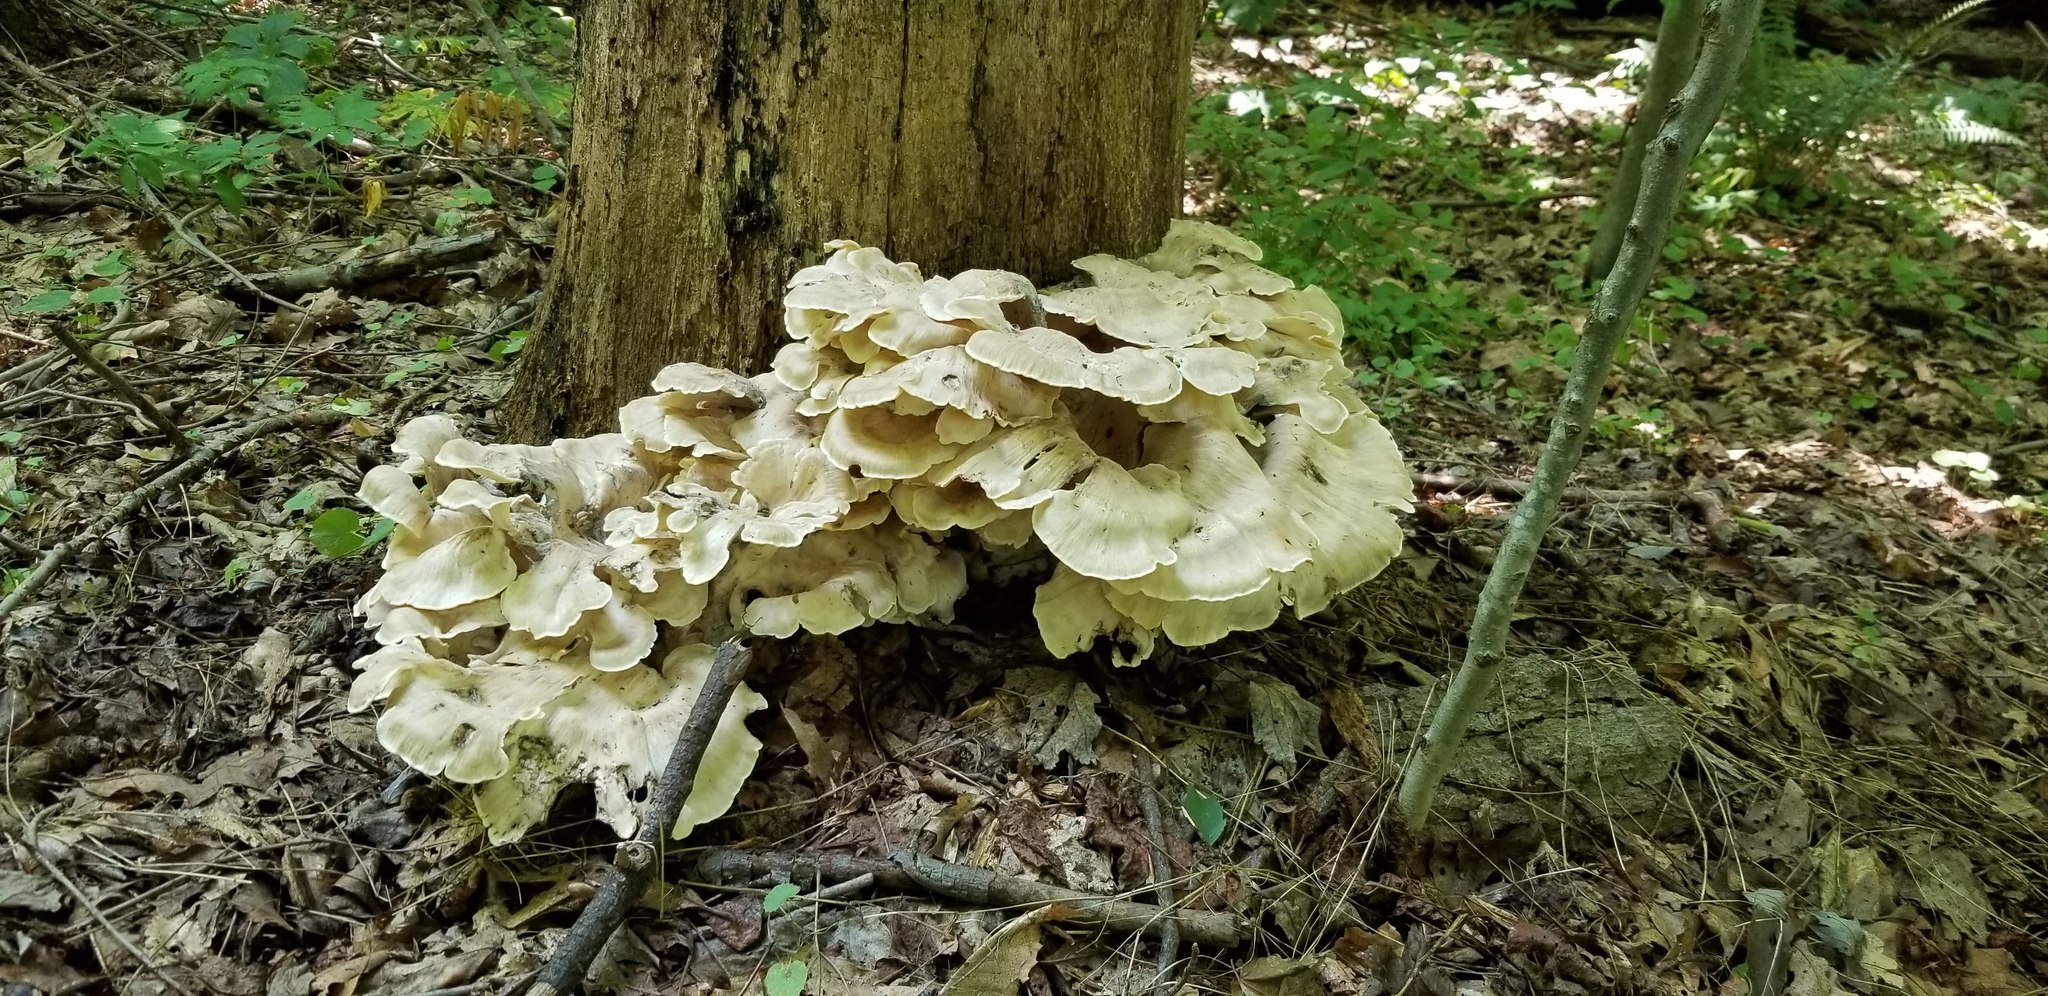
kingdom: Fungi
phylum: Basidiomycota
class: Agaricomycetes
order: Polyporales
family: Meripilaceae
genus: Meripilus
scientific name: Meripilus sumstinei
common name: Black-staining polypore
